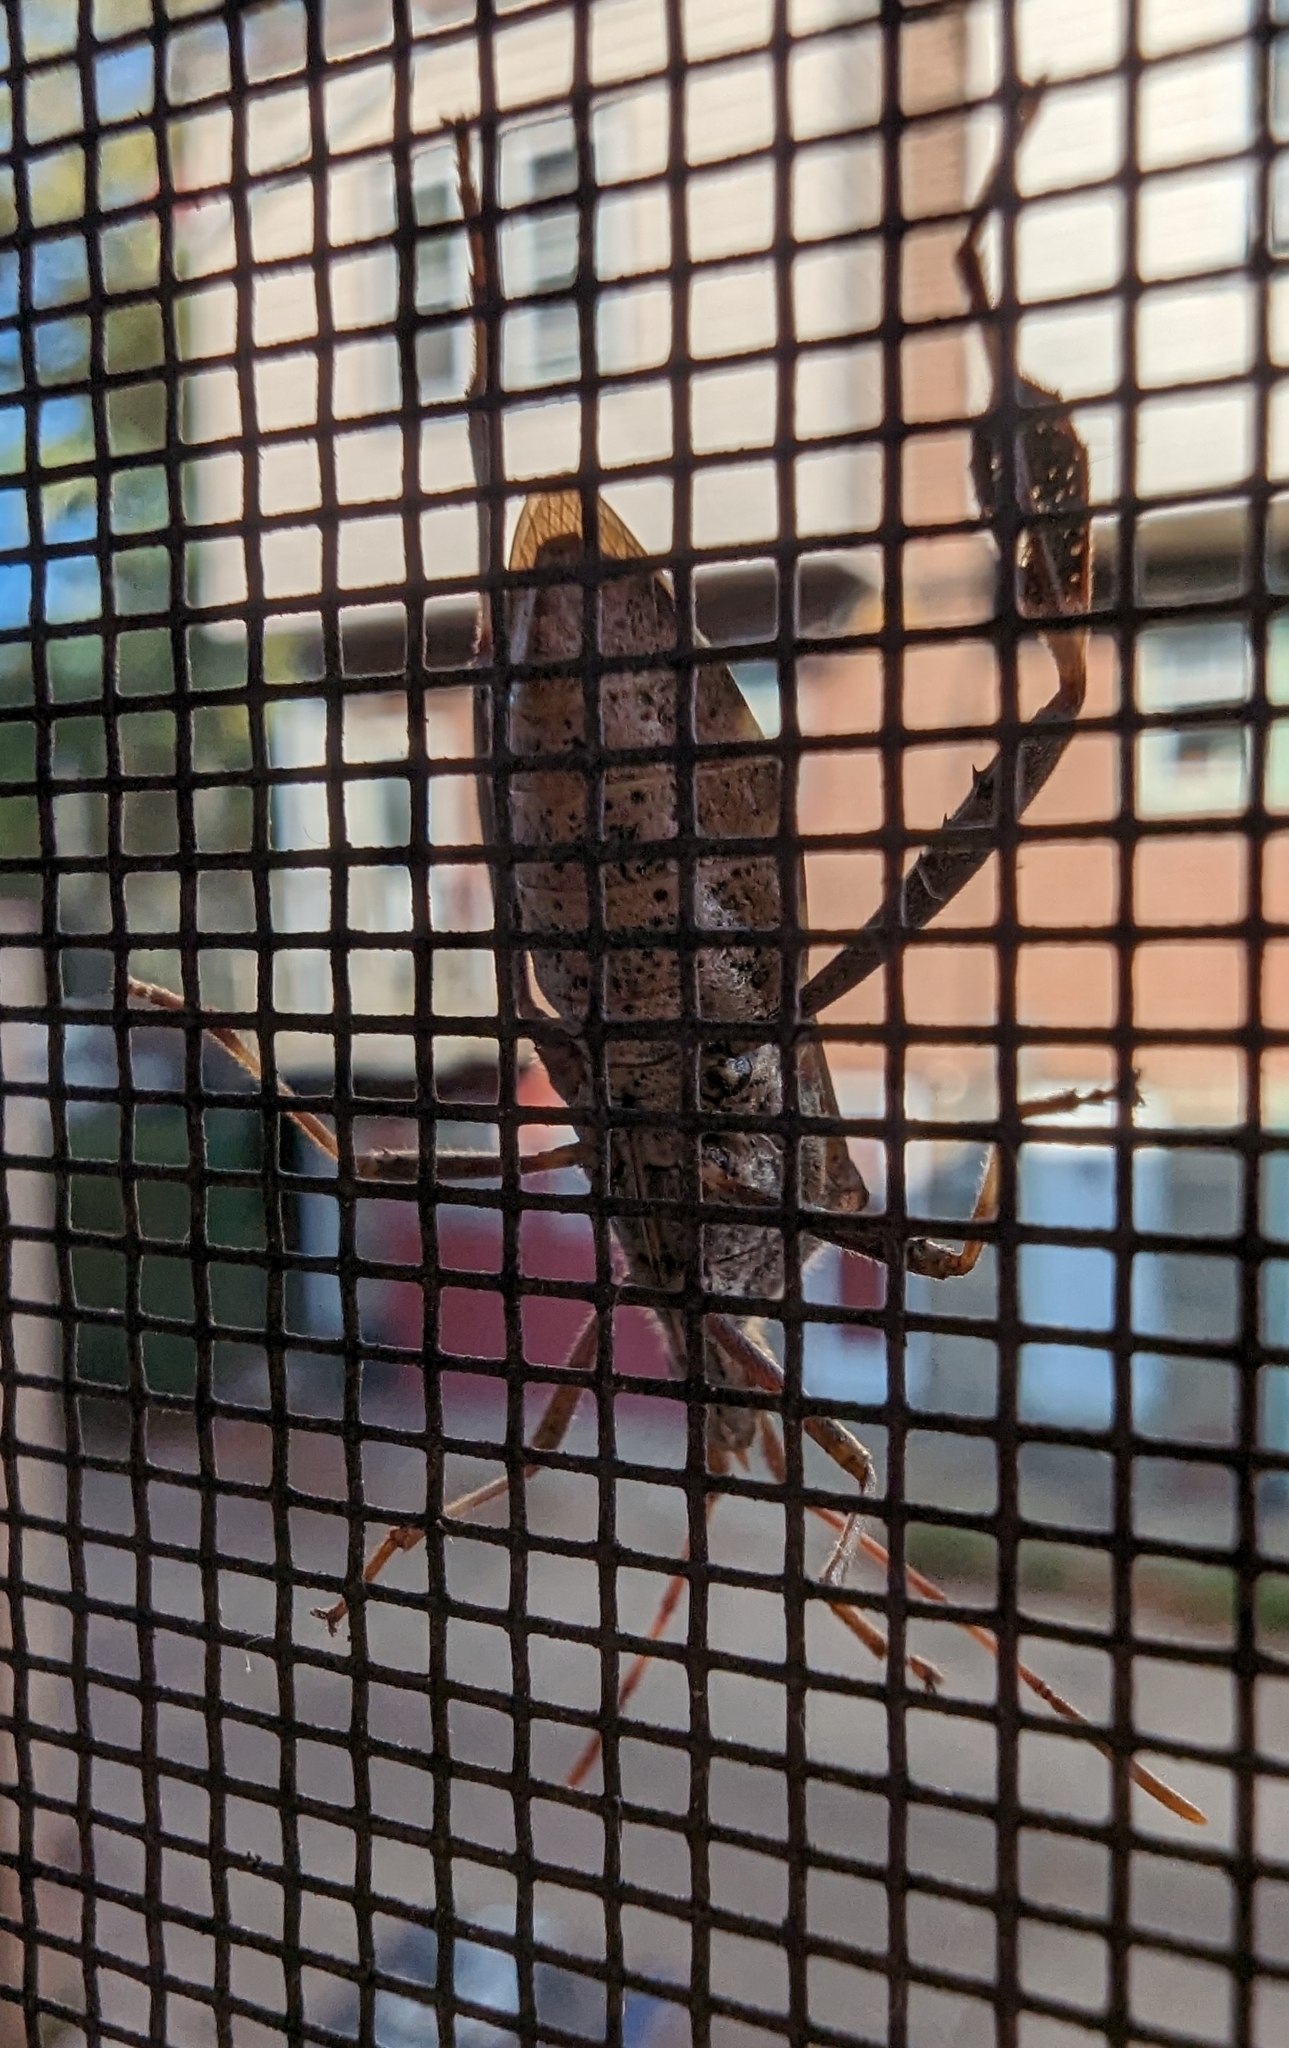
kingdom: Animalia
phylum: Arthropoda
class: Insecta
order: Hemiptera
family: Coreidae
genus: Leptoglossus
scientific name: Leptoglossus clypealis
